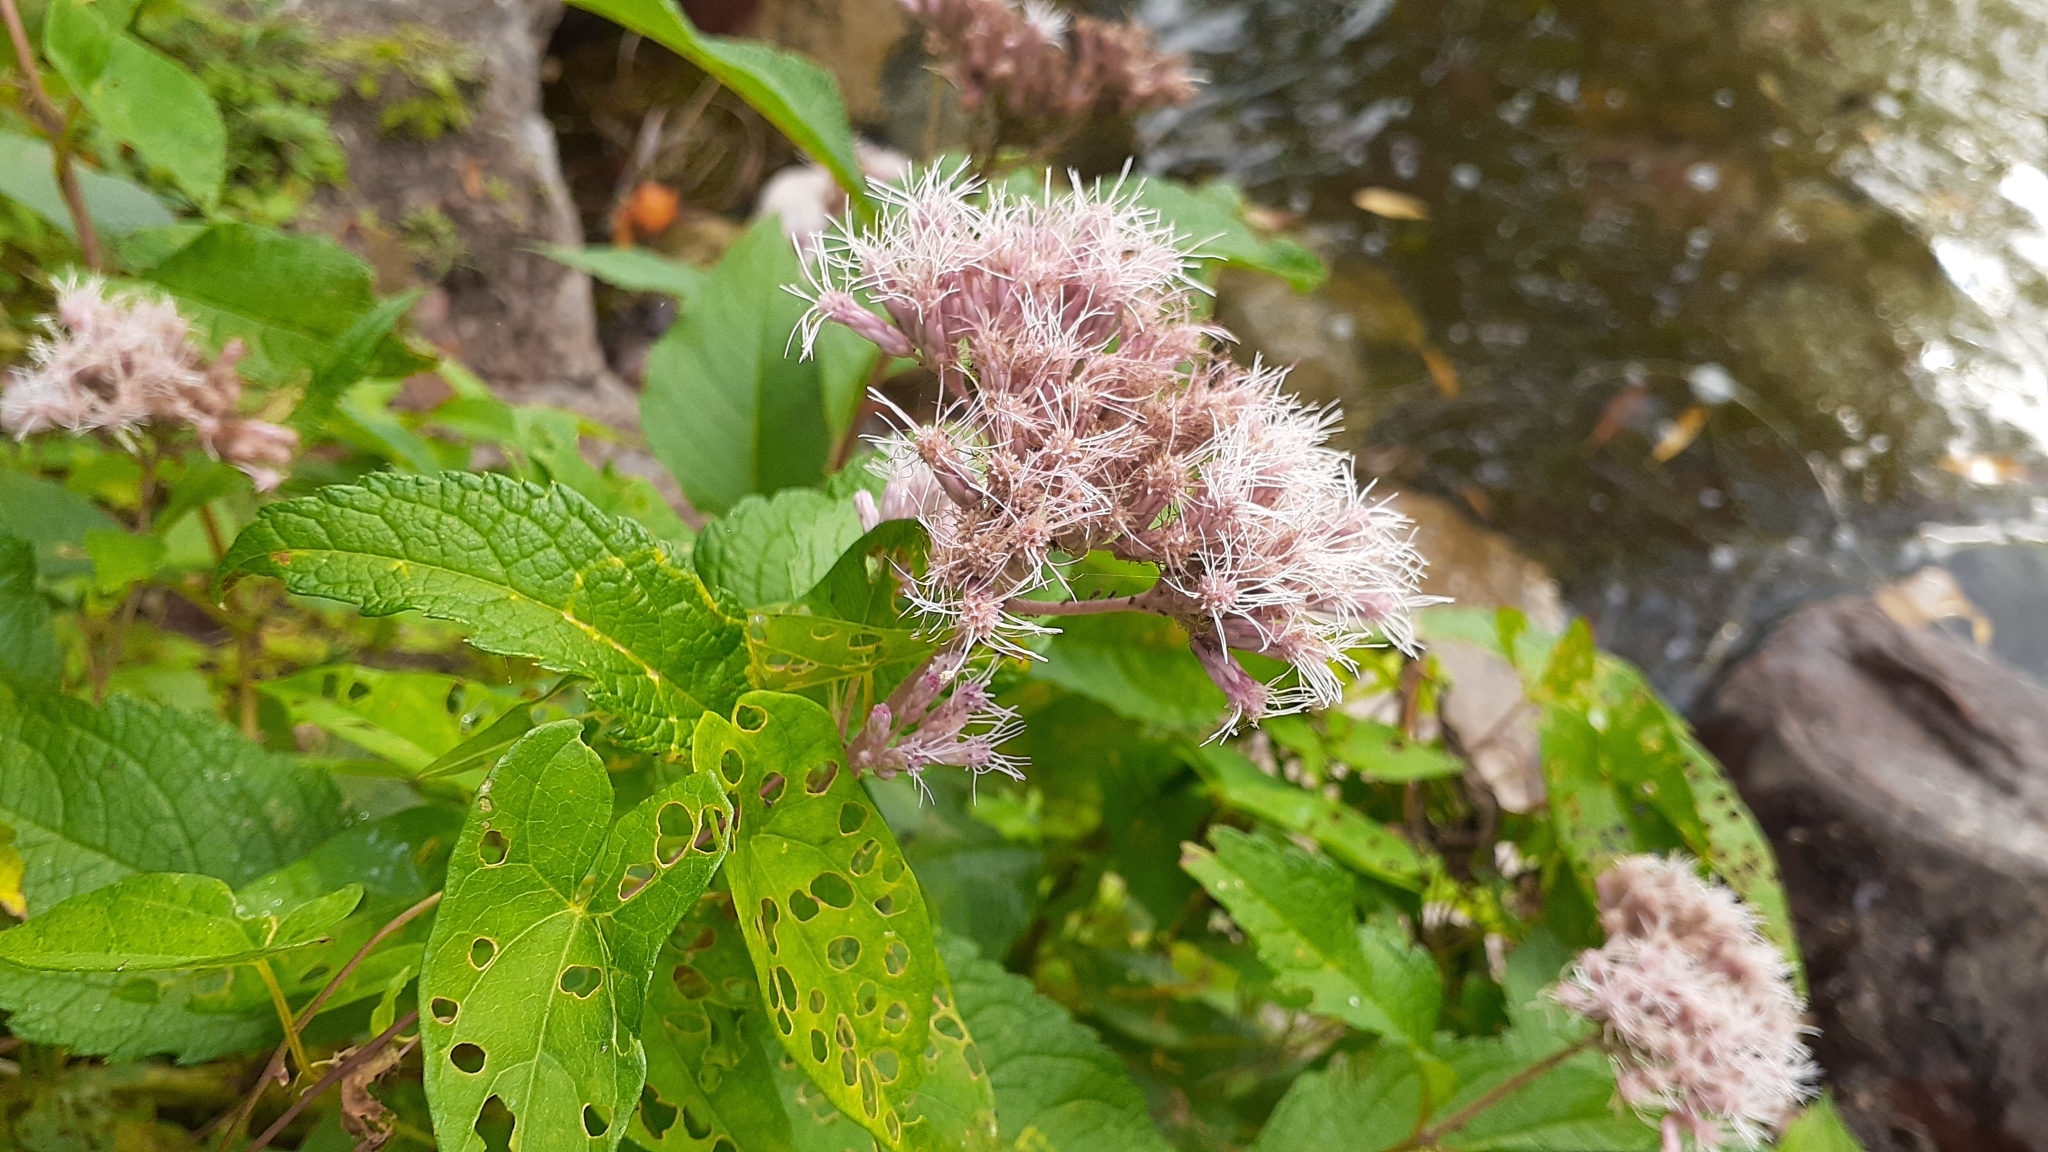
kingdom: Plantae
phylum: Tracheophyta
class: Magnoliopsida
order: Asterales
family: Asteraceae
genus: Eutrochium
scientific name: Eutrochium maculatum
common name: Spotted joe pye weed
